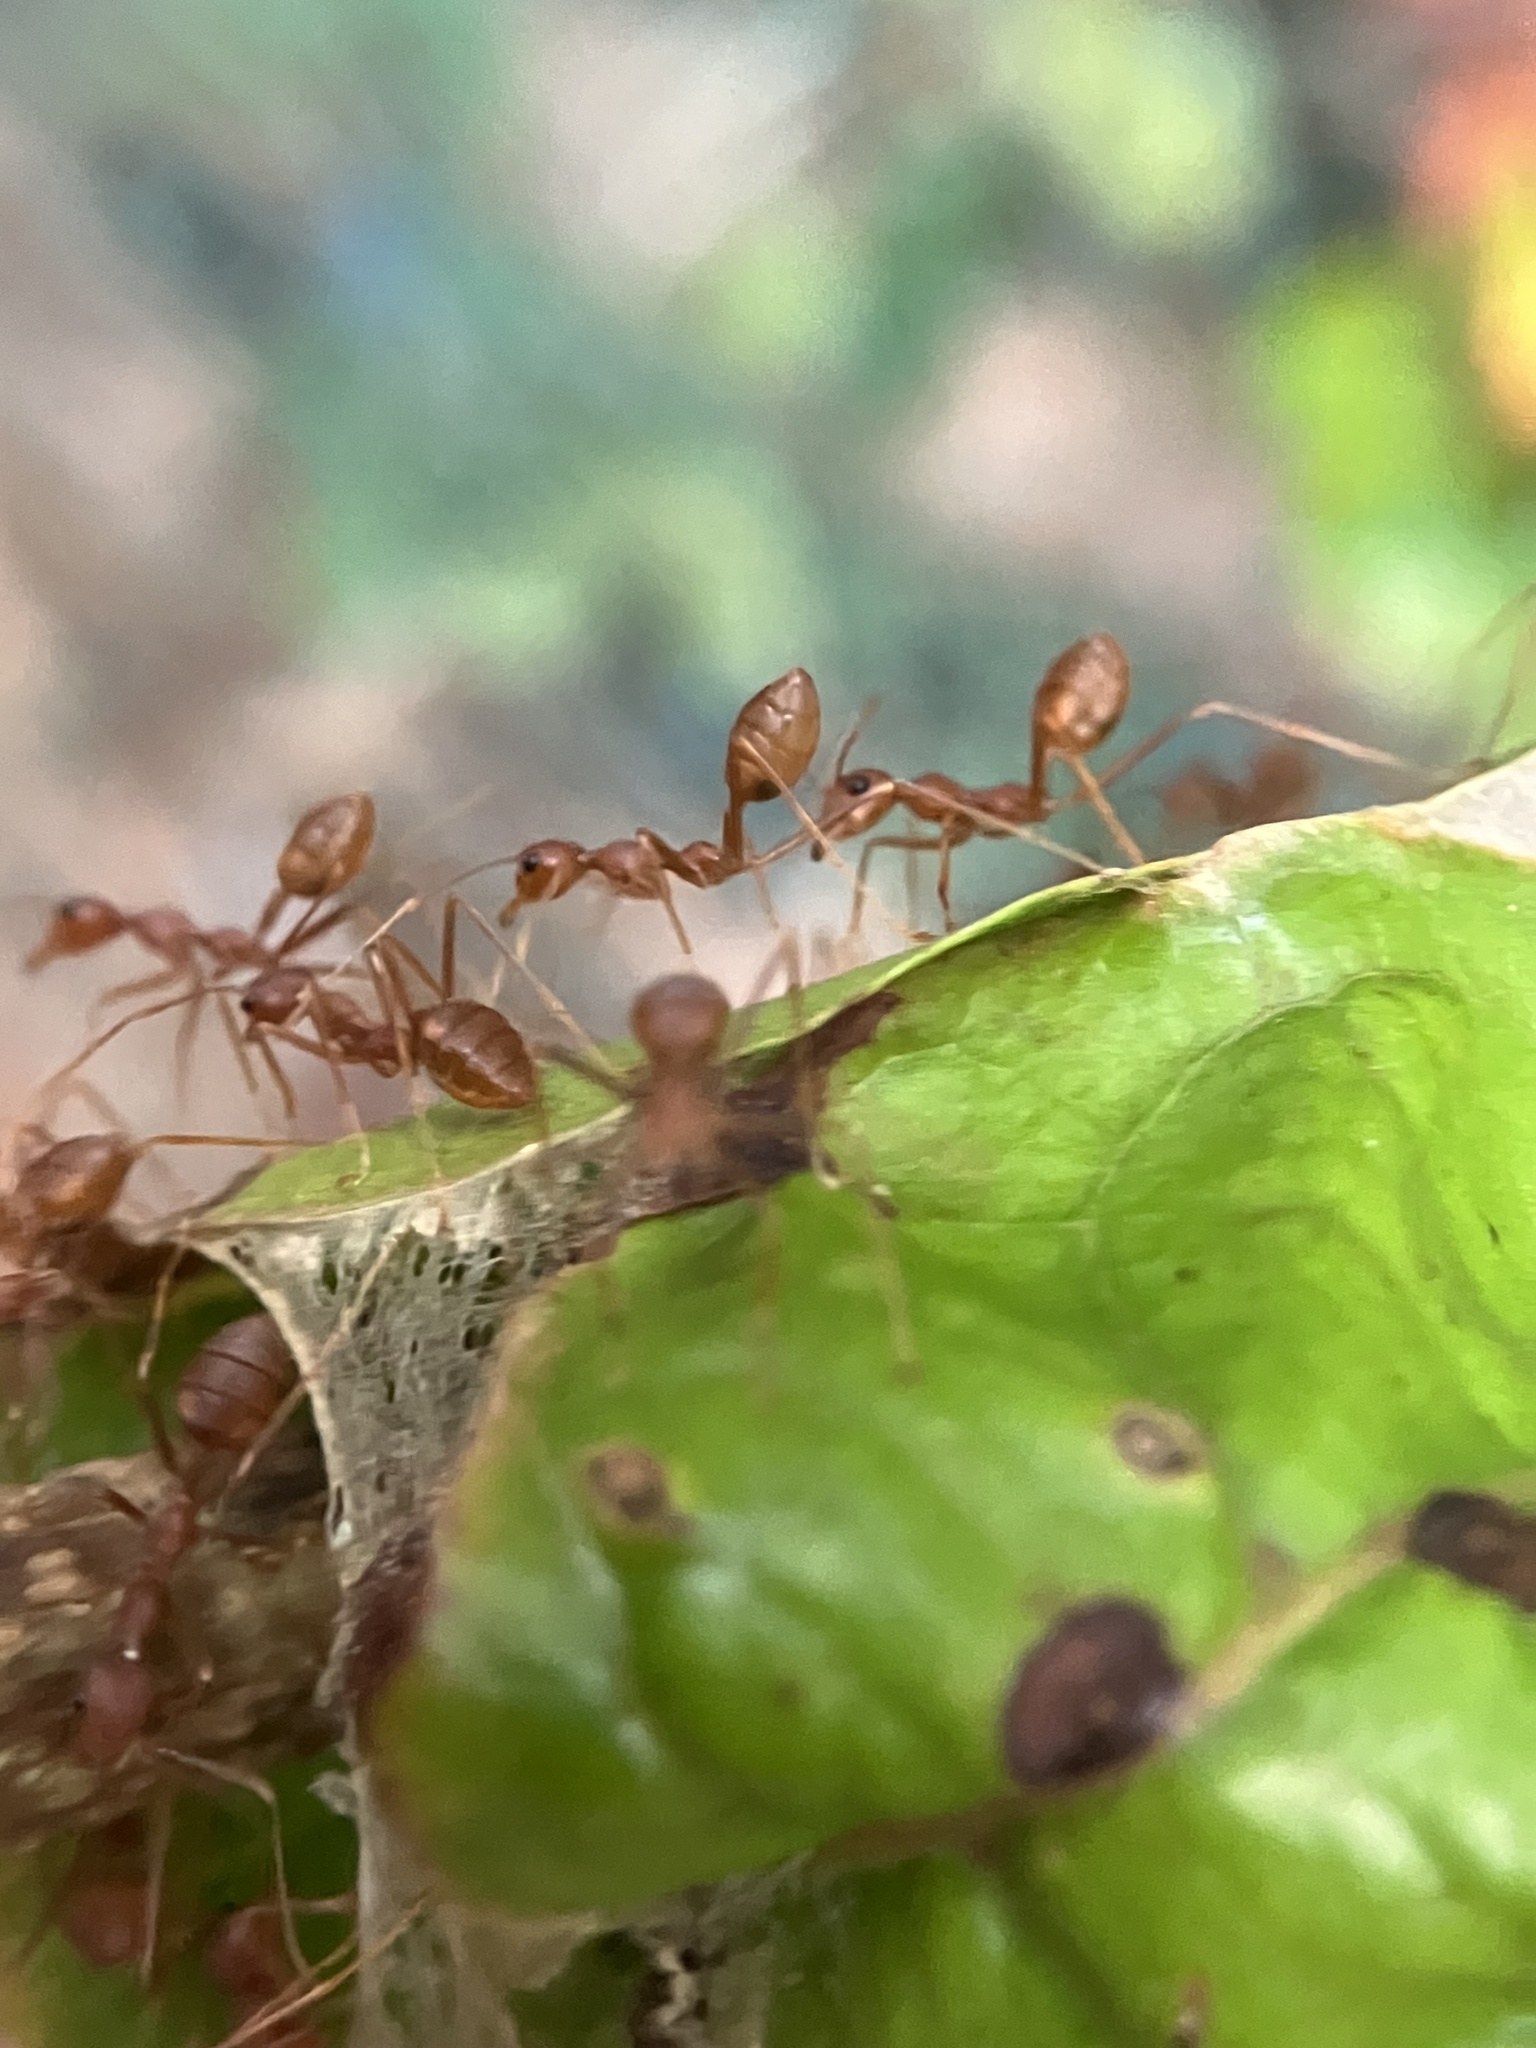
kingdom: Animalia
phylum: Arthropoda
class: Insecta
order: Hymenoptera
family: Formicidae
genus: Oecophylla
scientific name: Oecophylla smaragdina
